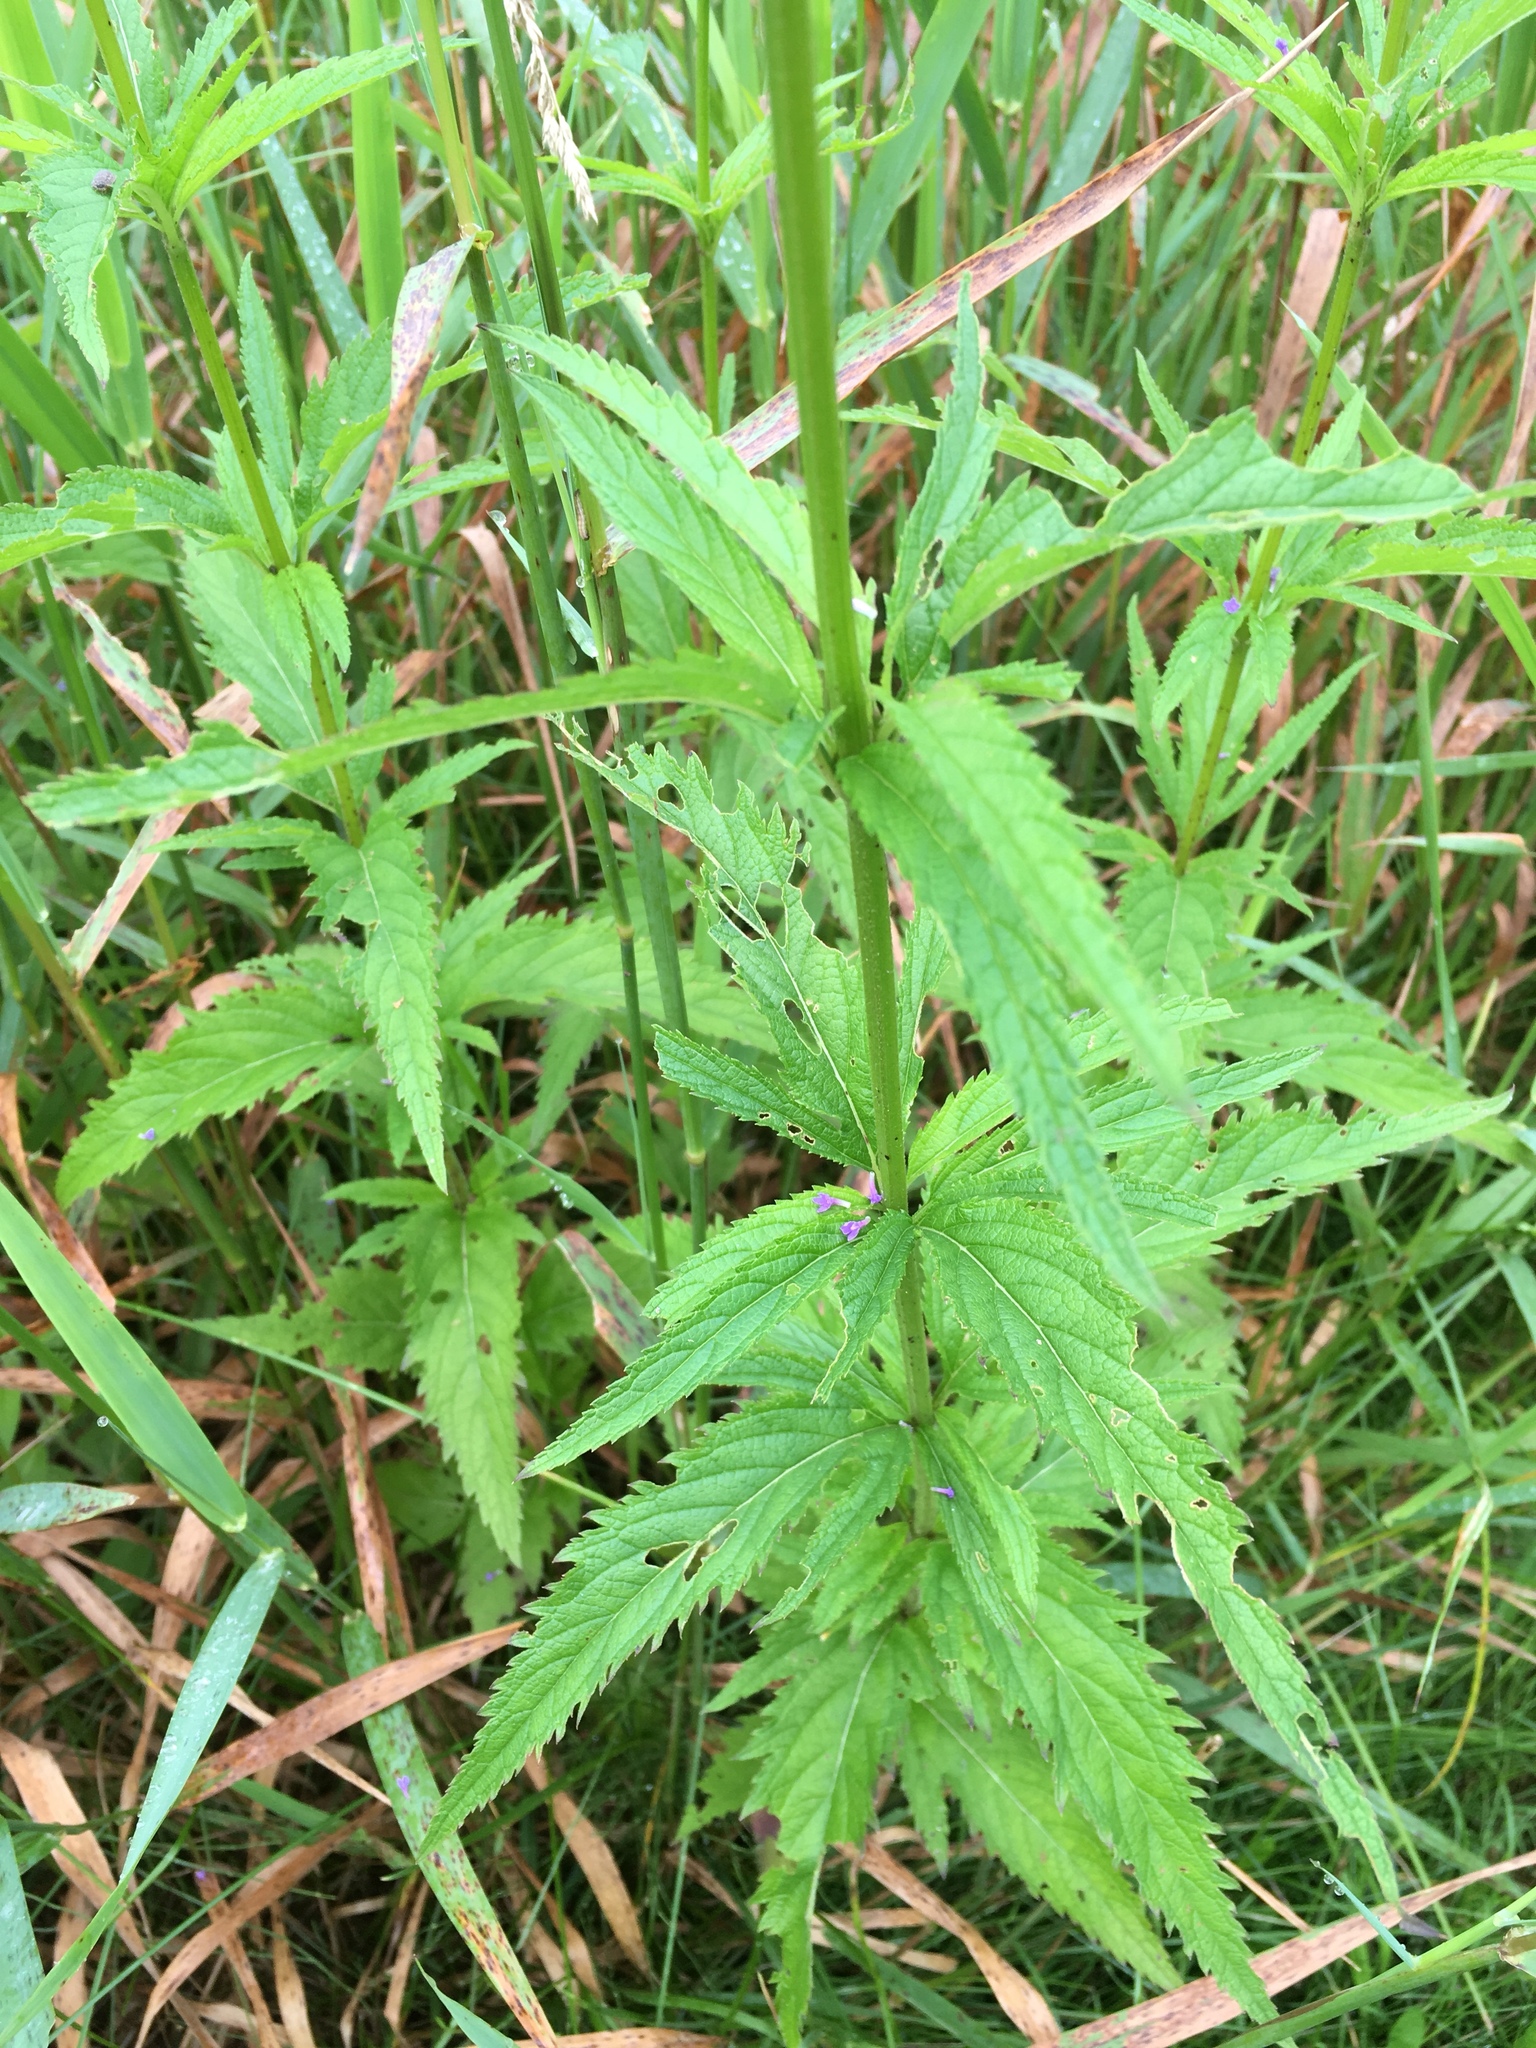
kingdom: Plantae
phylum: Tracheophyta
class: Magnoliopsida
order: Lamiales
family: Verbenaceae
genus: Verbena
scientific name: Verbena hastata
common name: American blue vervain
